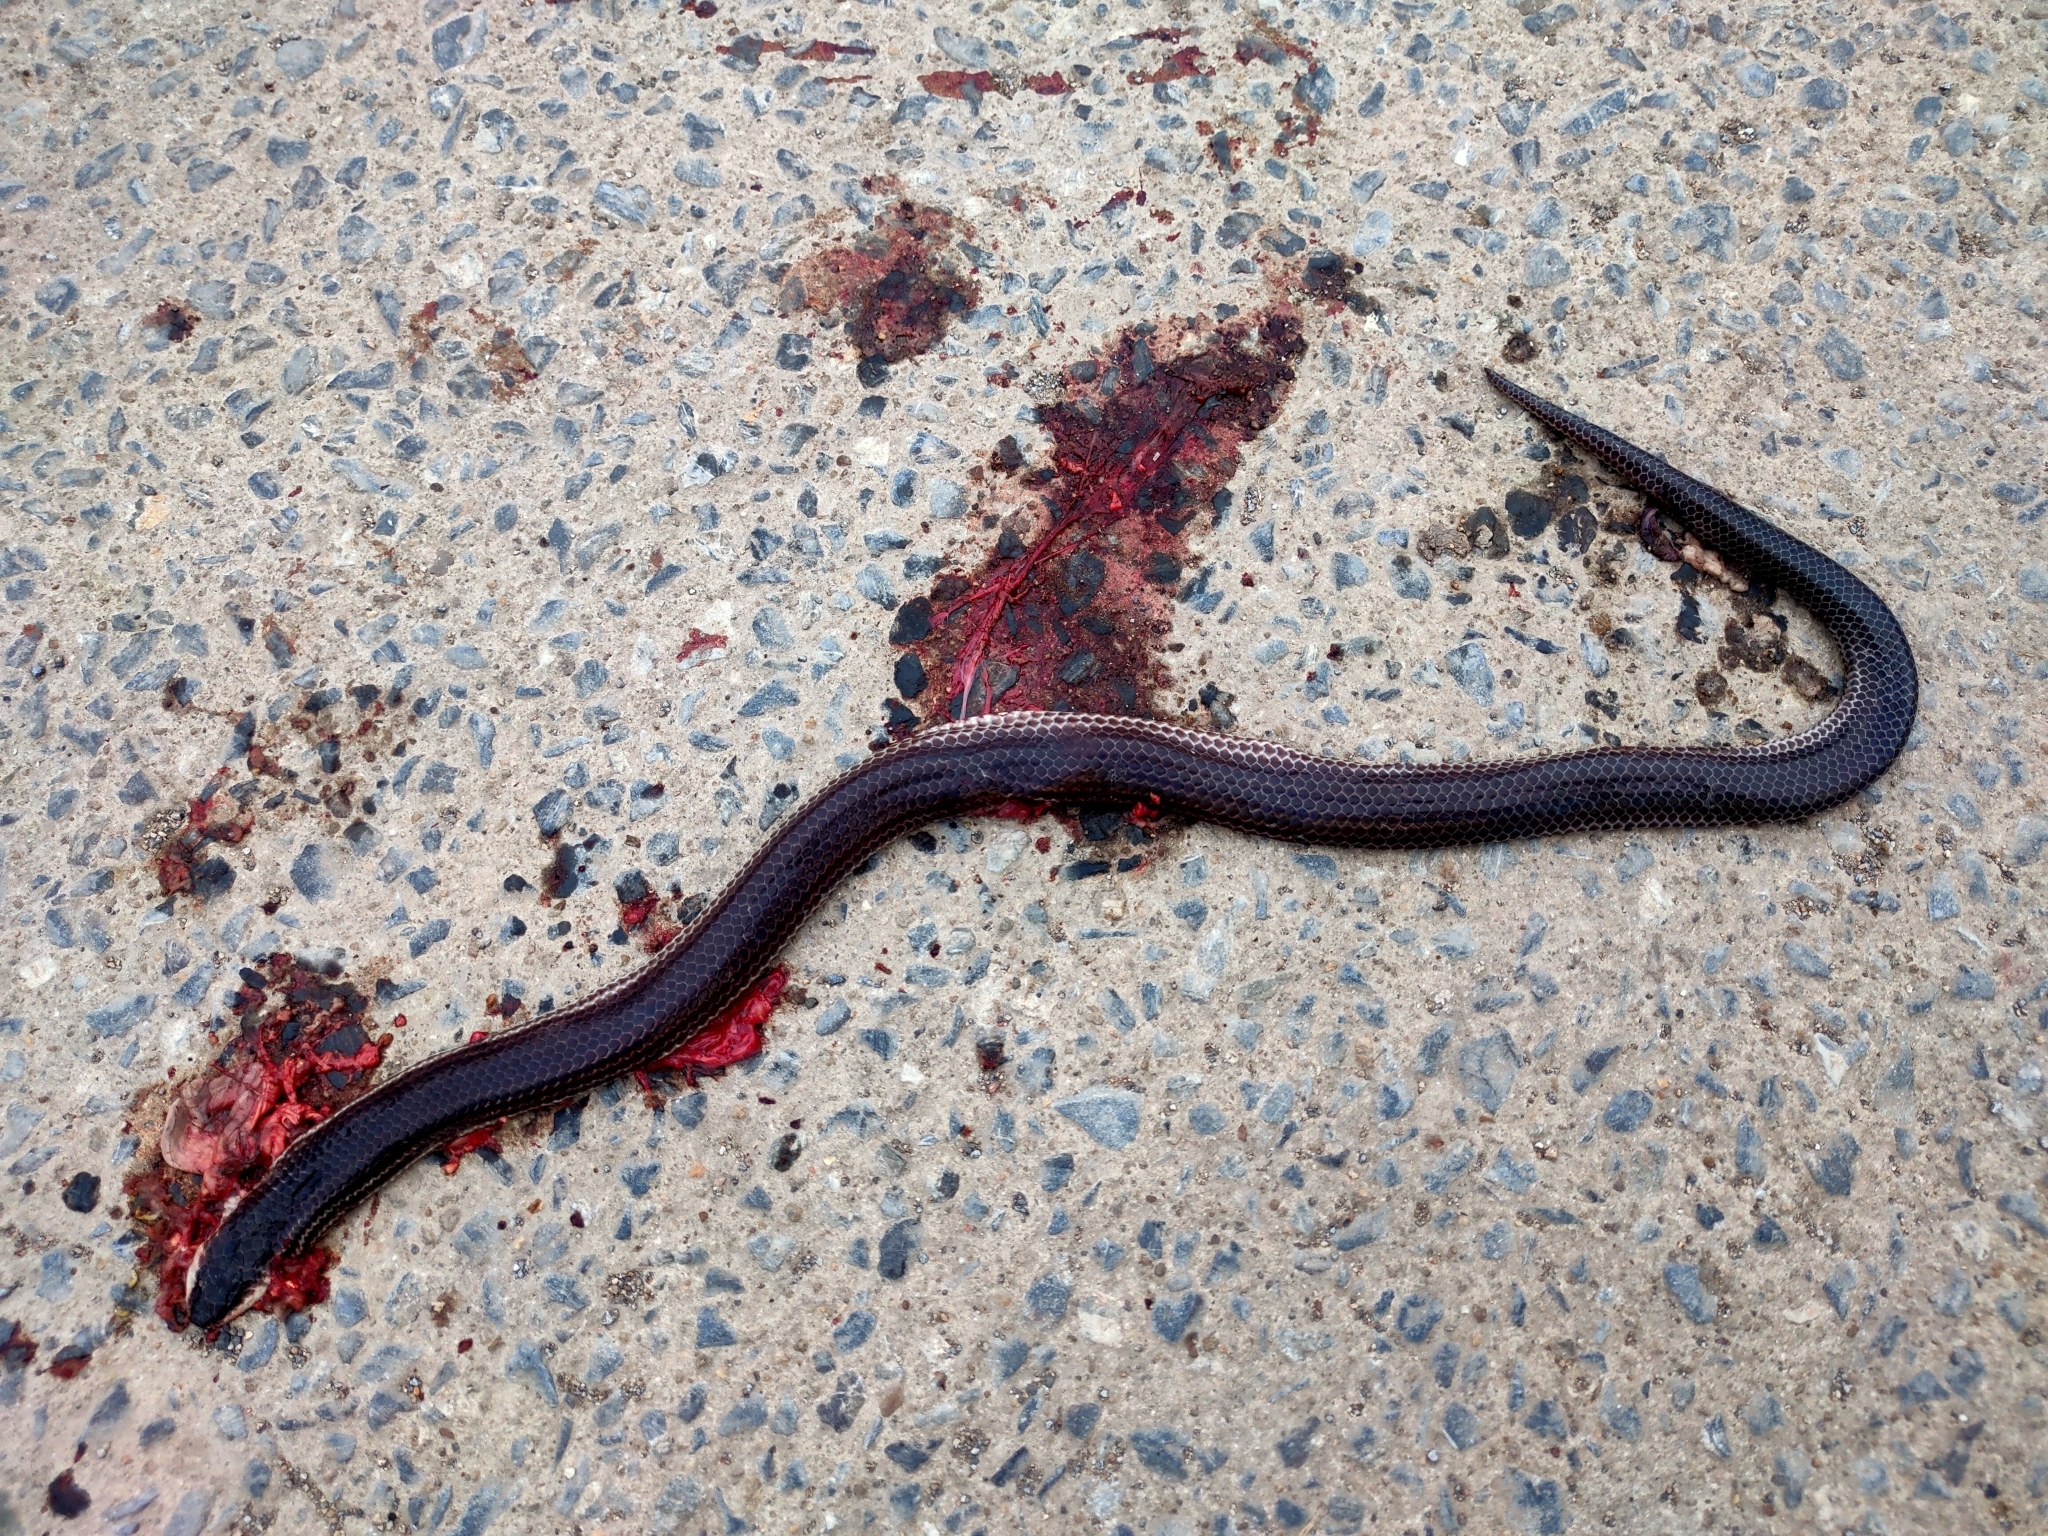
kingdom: Animalia
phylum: Chordata
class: Squamata
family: Xenopeltidae
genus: Xenopeltis
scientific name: Xenopeltis unicolor
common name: Sunbeam snake
